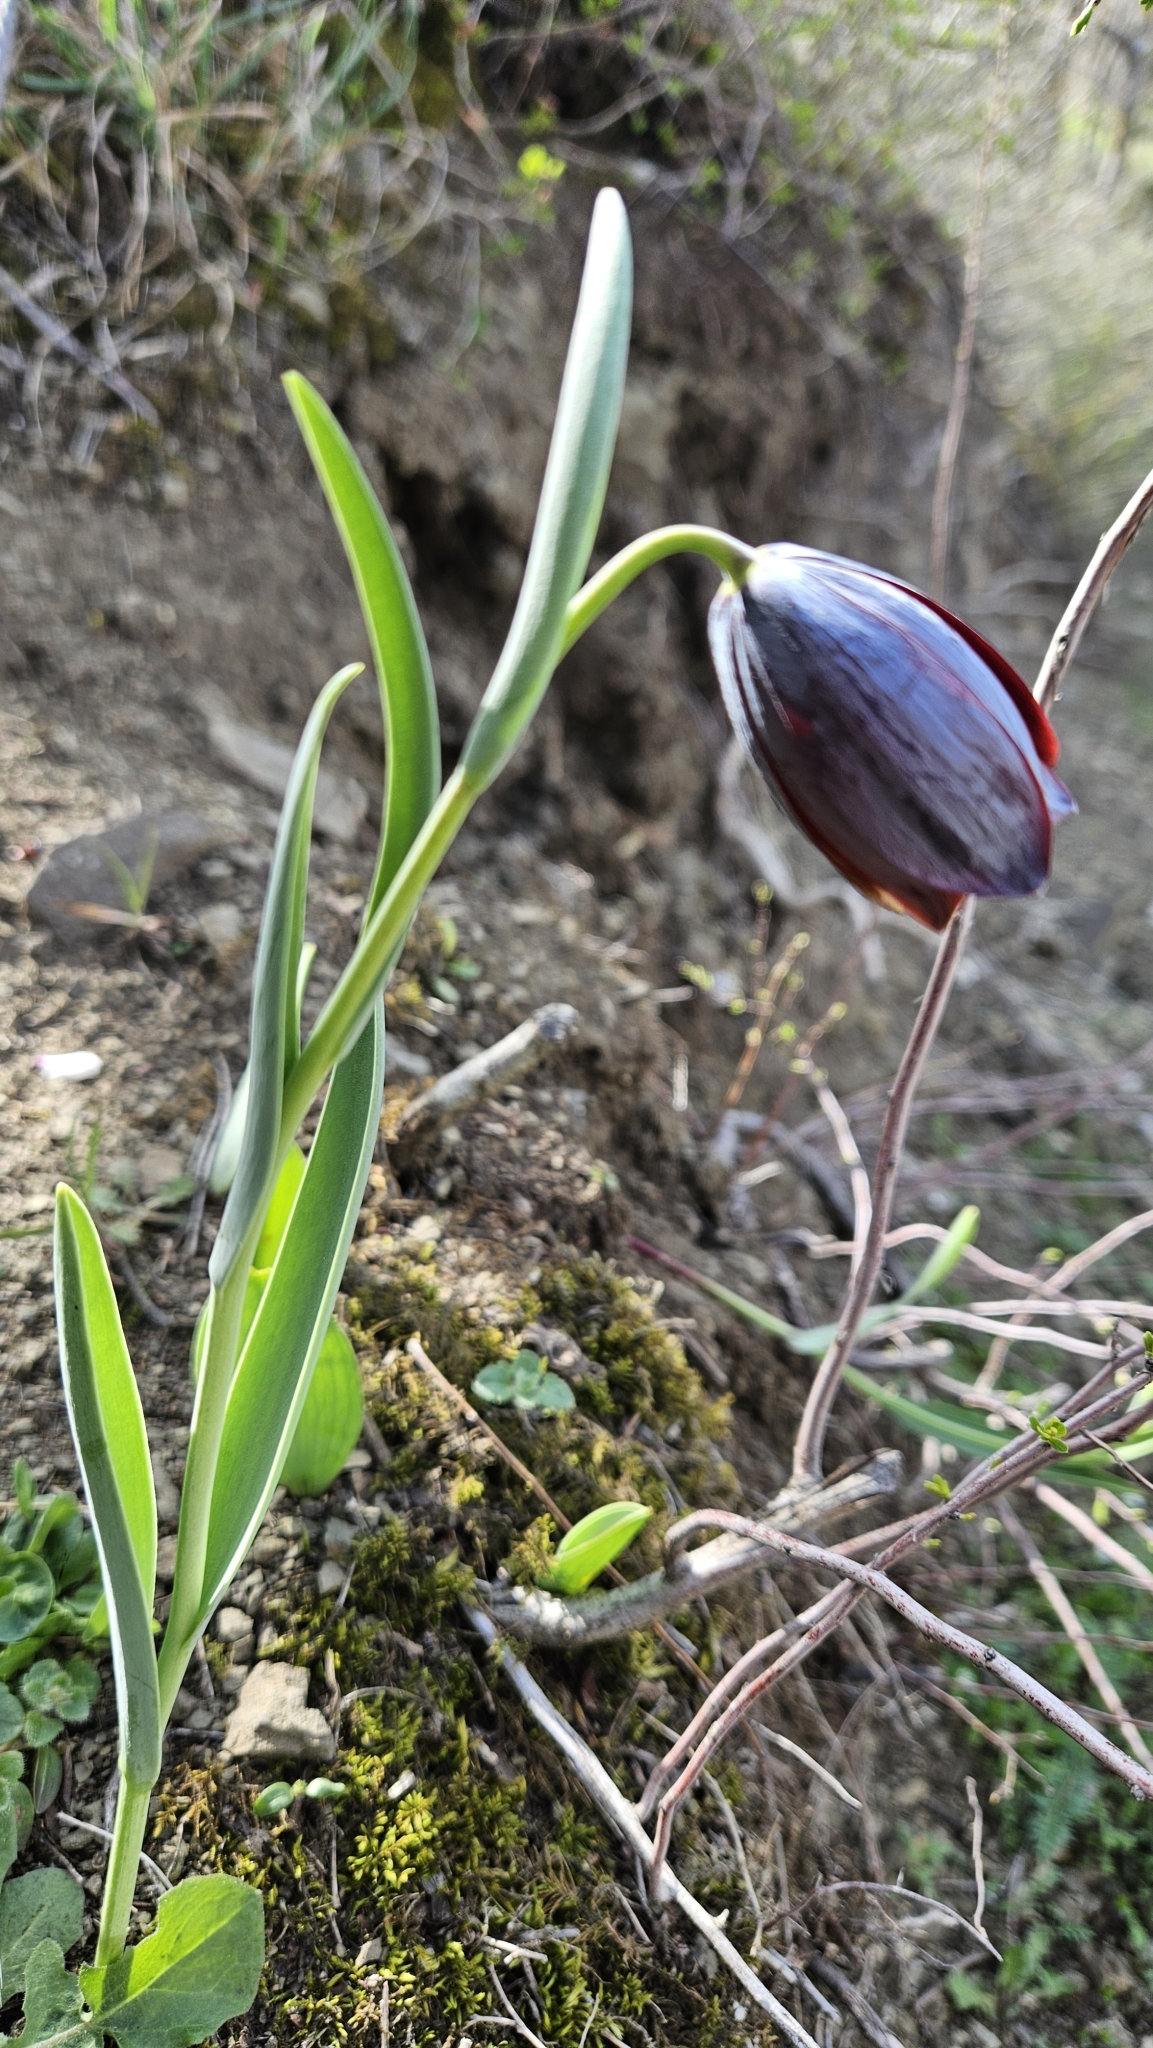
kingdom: Plantae
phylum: Tracheophyta
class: Liliopsida
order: Liliales
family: Liliaceae
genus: Fritillaria
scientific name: Fritillaria caucasica
